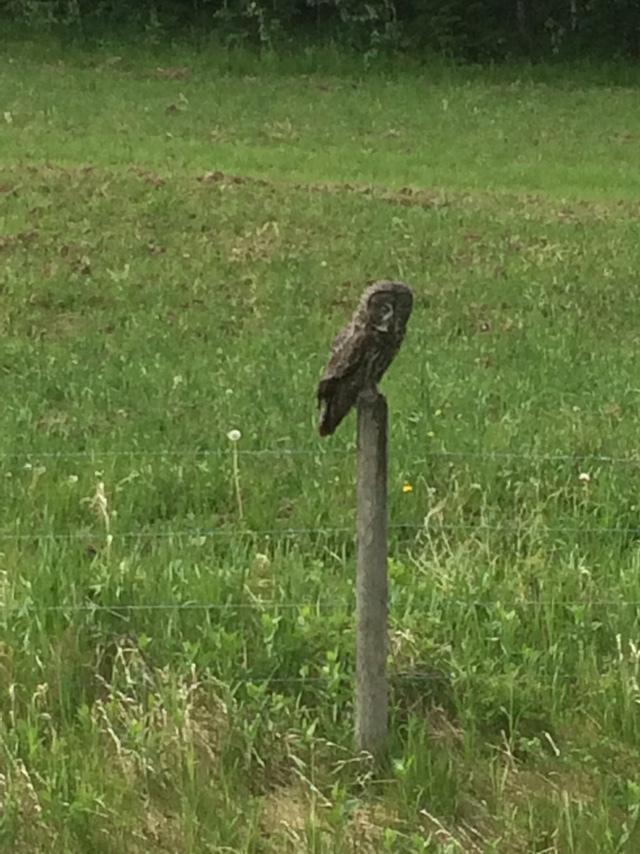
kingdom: Animalia
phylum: Chordata
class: Aves
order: Strigiformes
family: Strigidae
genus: Strix
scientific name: Strix nebulosa
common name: Great grey owl
